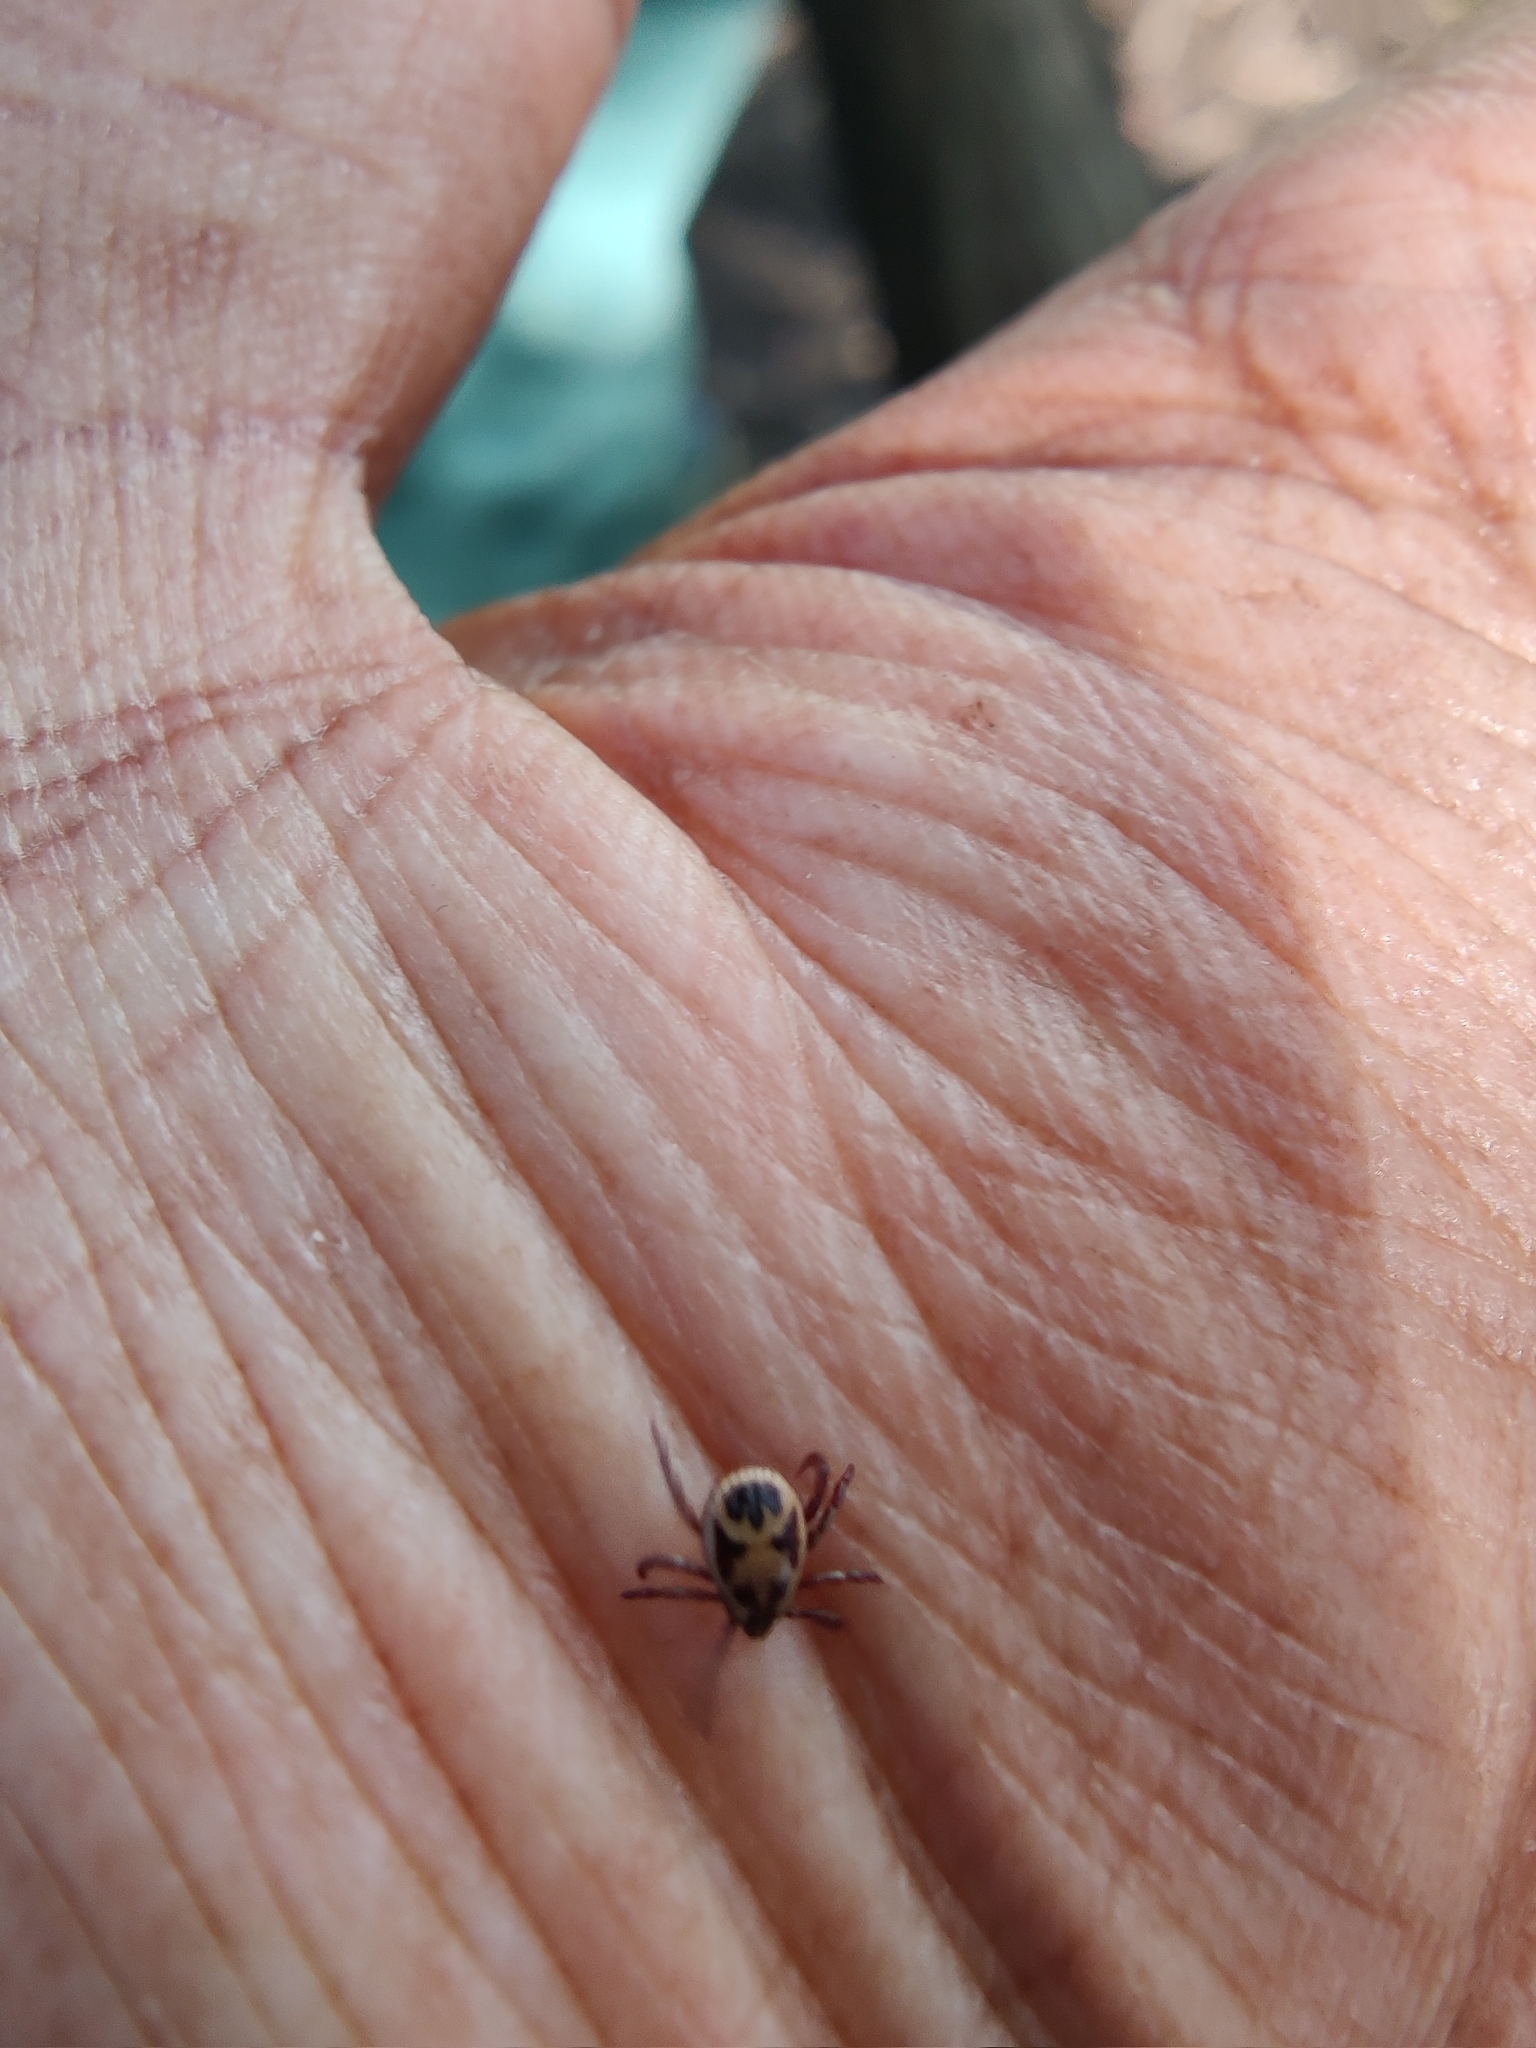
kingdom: Animalia
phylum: Arthropoda
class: Arachnida
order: Ixodida
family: Ixodidae
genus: Rhipicephalus
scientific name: Rhipicephalus pulchellus
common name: Yellow backed tick
